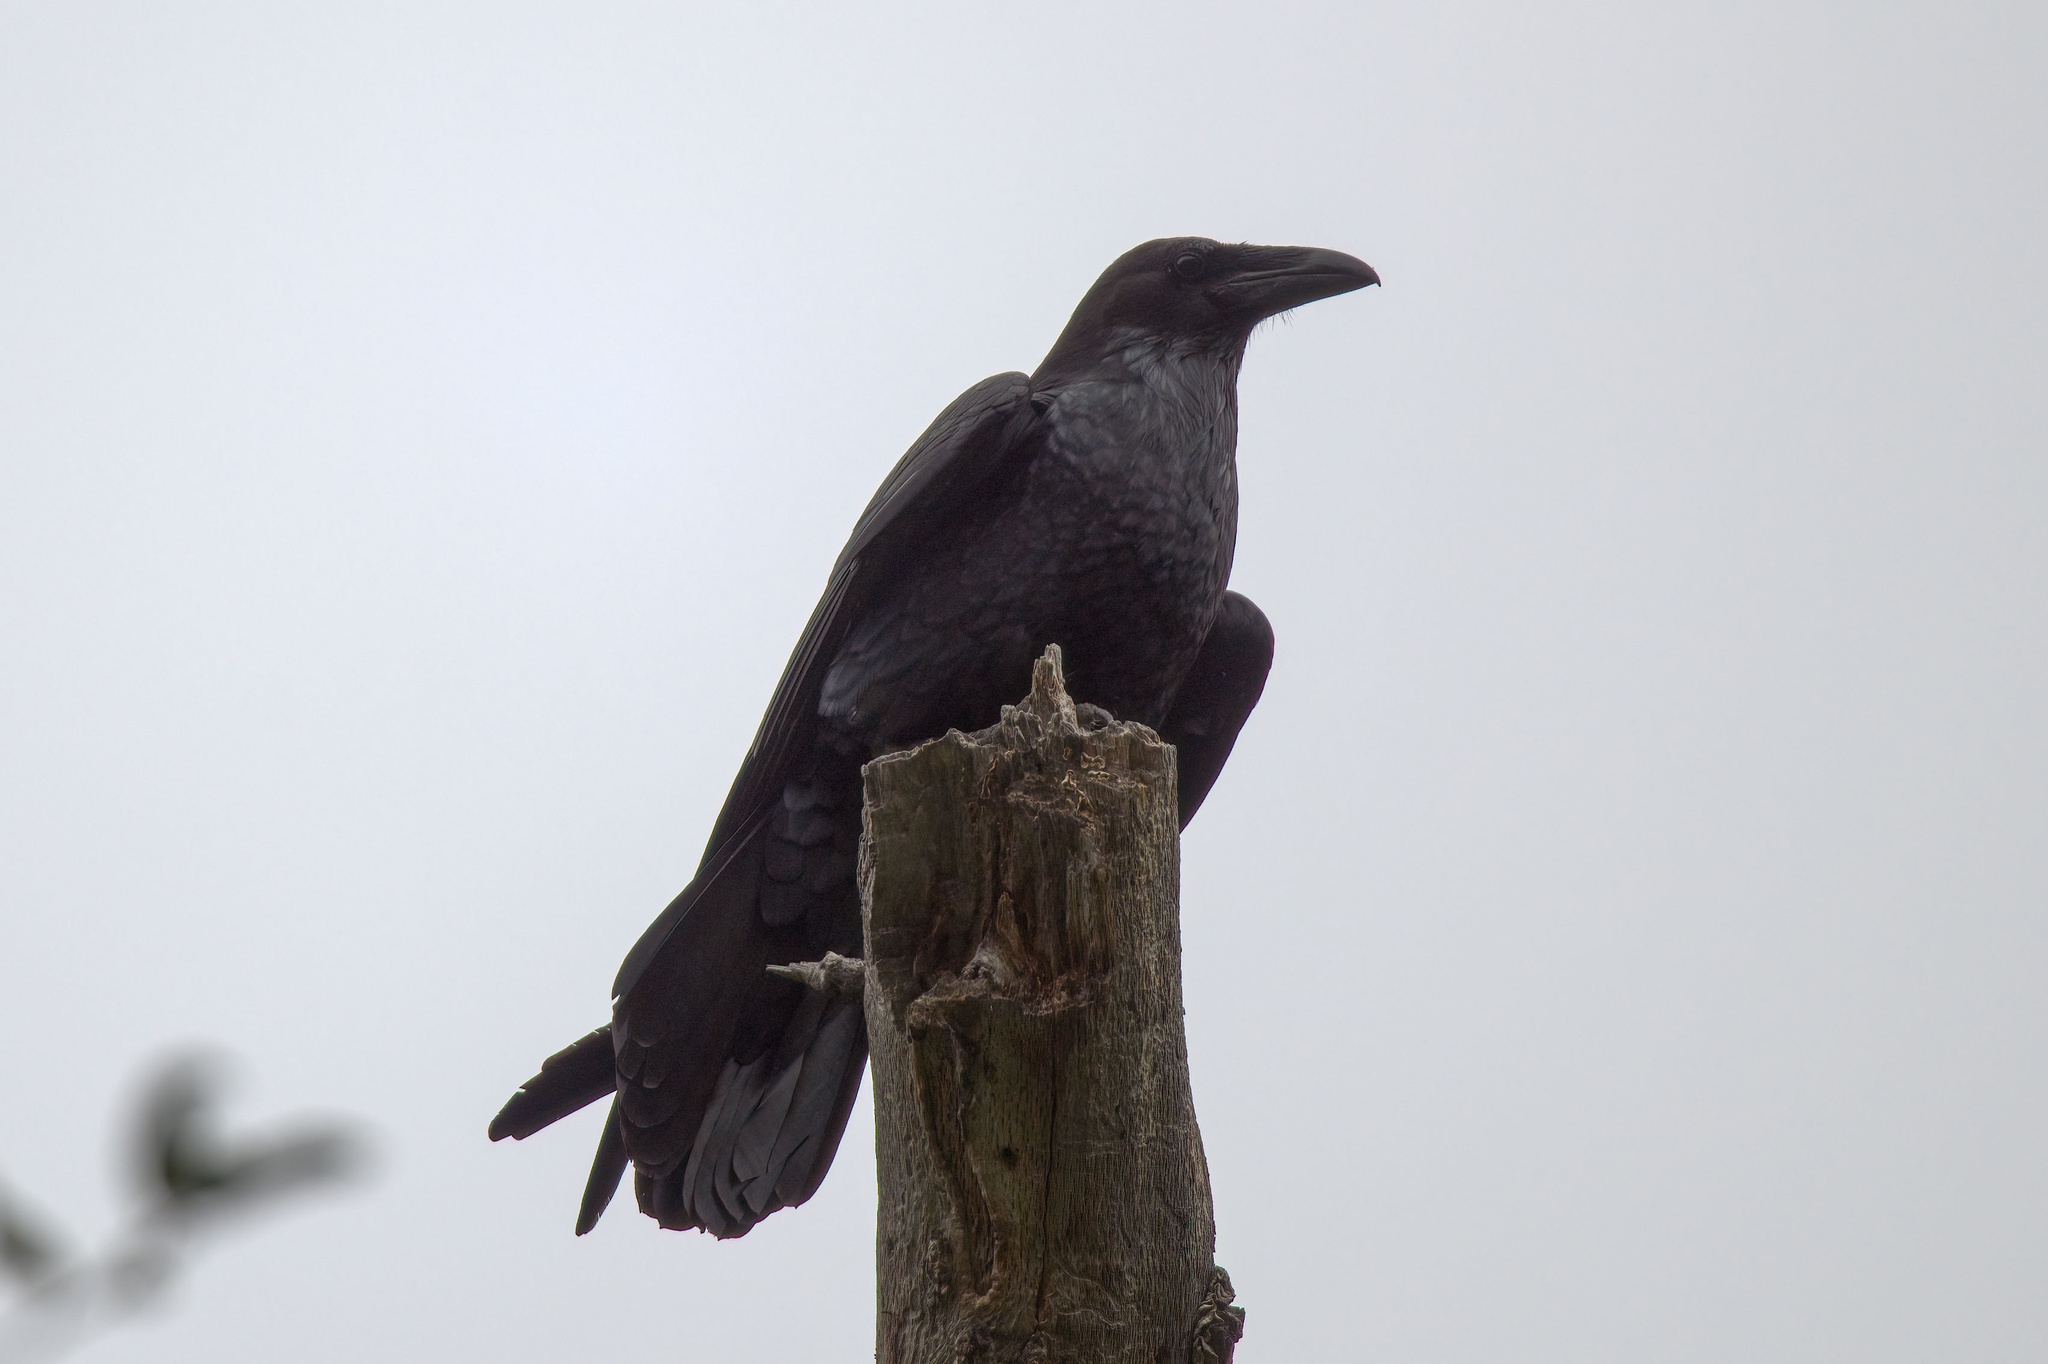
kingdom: Animalia
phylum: Chordata
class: Aves
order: Passeriformes
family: Corvidae
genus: Corvus
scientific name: Corvus corax
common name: Common raven
